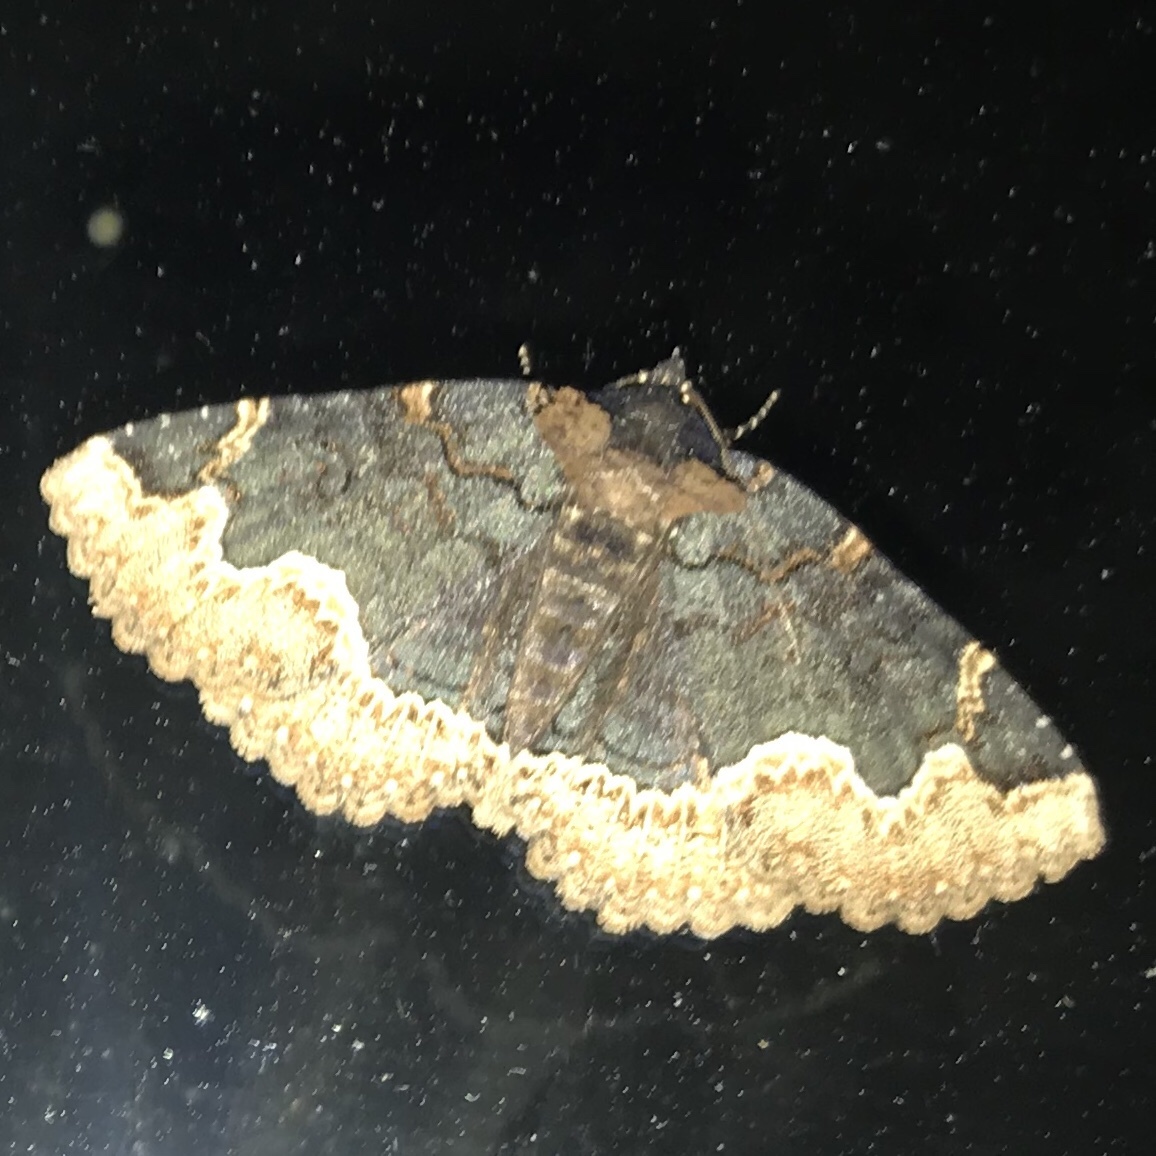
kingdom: Animalia
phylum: Arthropoda
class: Insecta
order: Lepidoptera
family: Erebidae
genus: Zale
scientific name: Zale horrida
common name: Horrid zale moth
